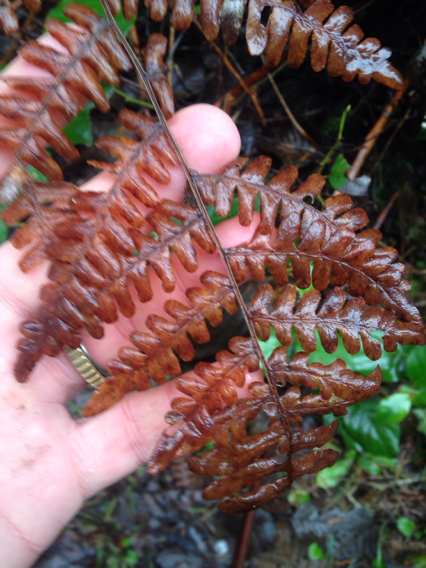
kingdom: Plantae
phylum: Tracheophyta
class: Polypodiopsida
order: Polypodiales
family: Dennstaedtiaceae
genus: Pteridium
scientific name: Pteridium aquilinum
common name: Bracken
